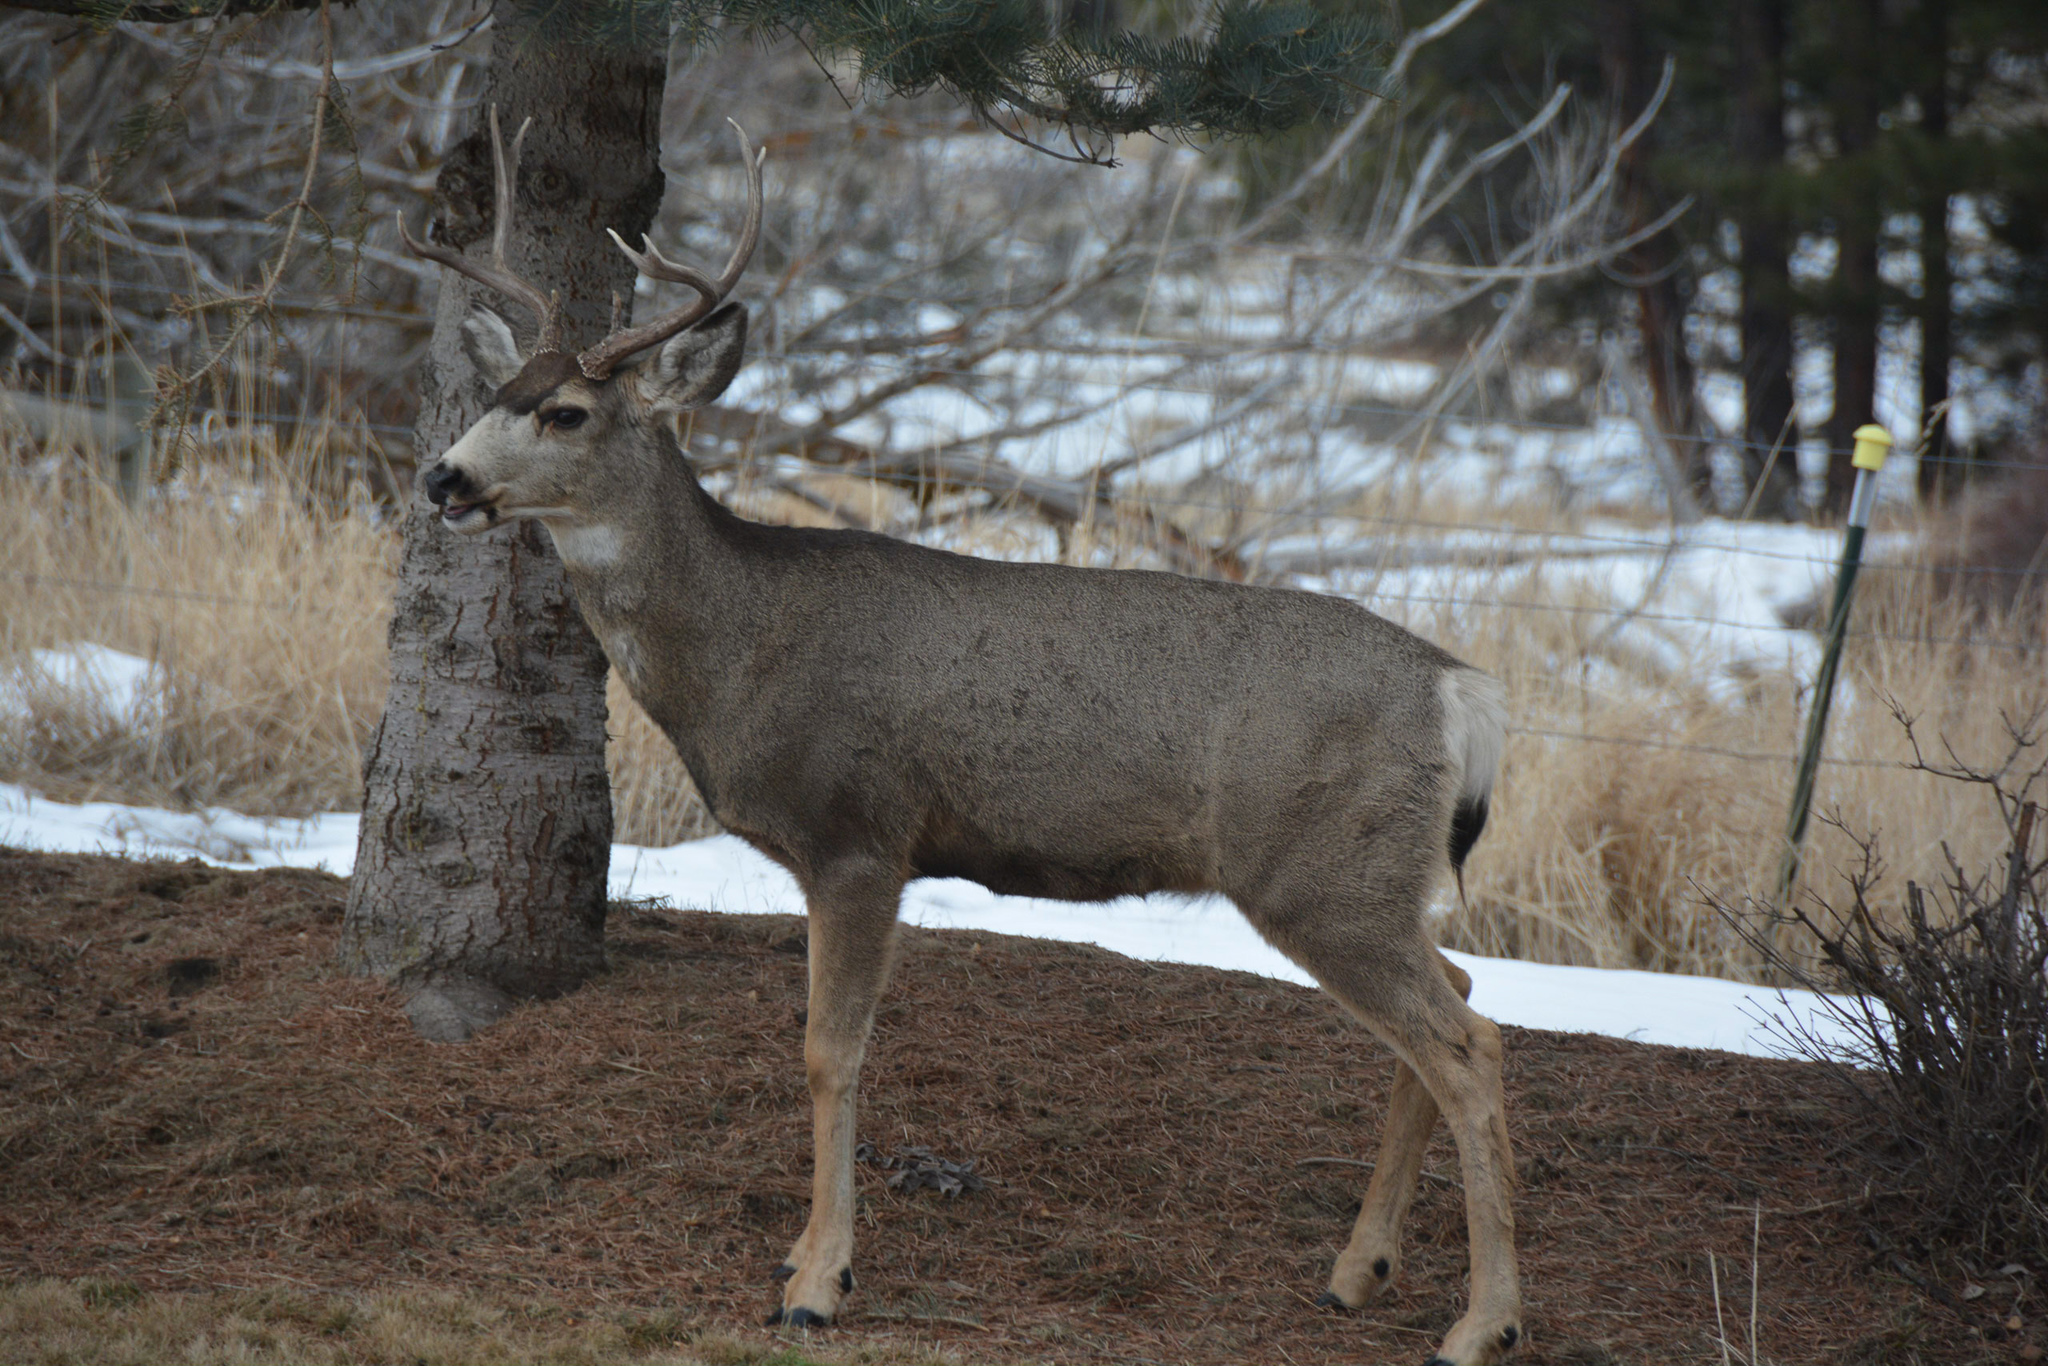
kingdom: Animalia
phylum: Chordata
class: Mammalia
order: Artiodactyla
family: Cervidae
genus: Odocoileus
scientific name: Odocoileus hemionus
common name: Mule deer
